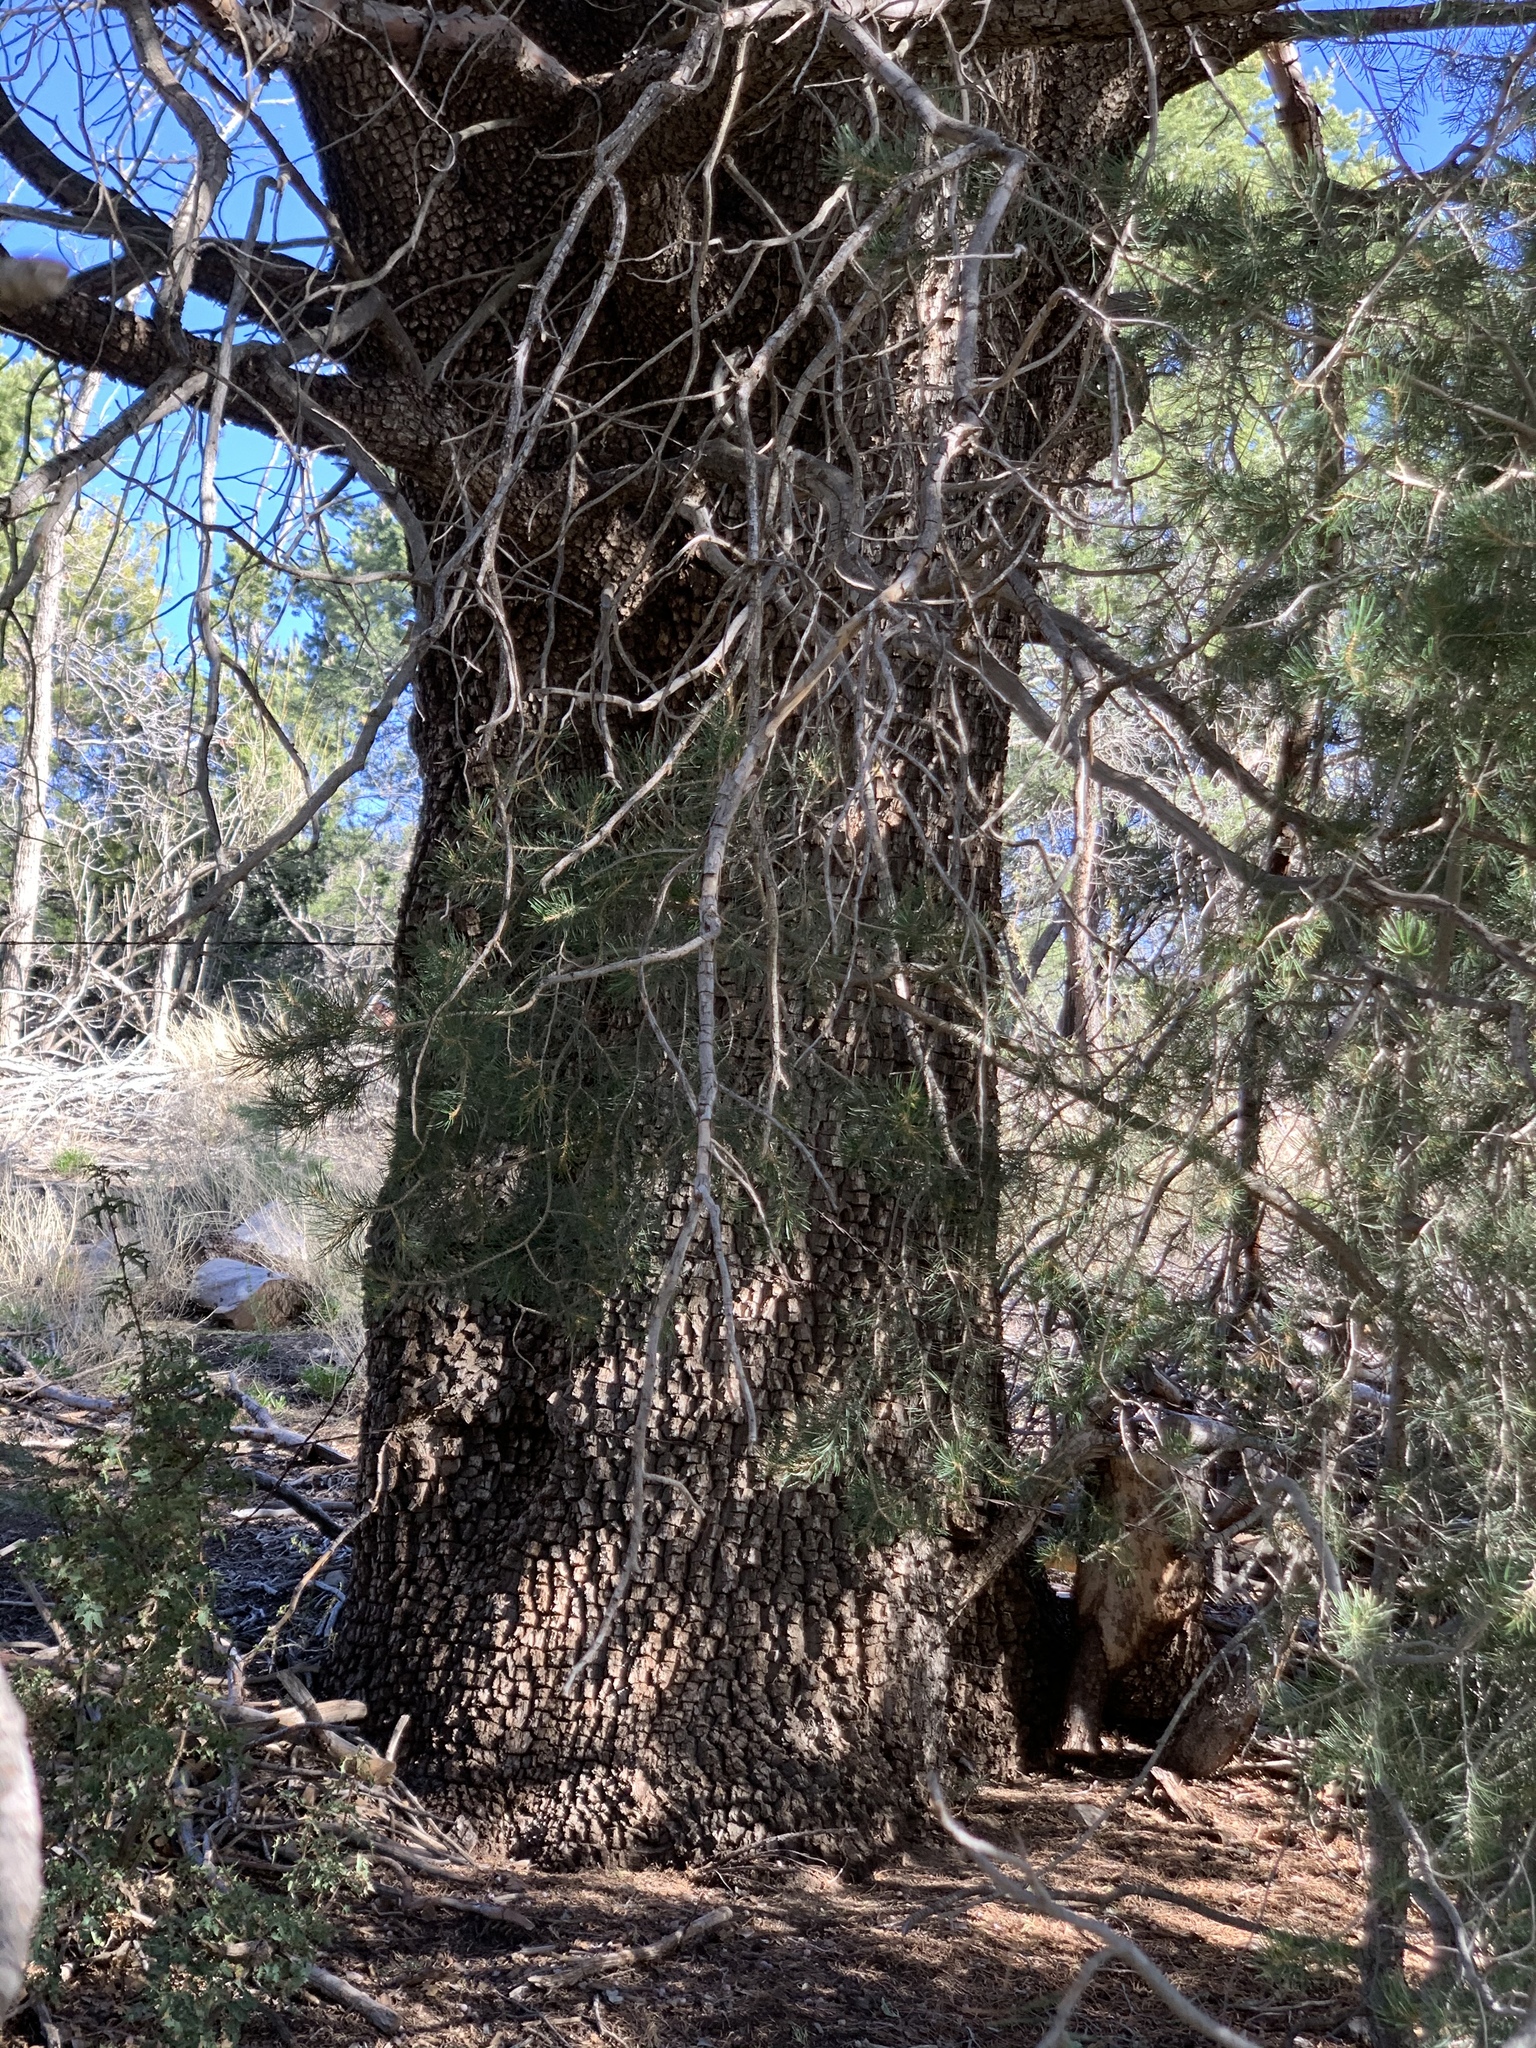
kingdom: Plantae
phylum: Tracheophyta
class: Pinopsida
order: Pinales
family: Cupressaceae
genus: Juniperus
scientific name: Juniperus deppeana
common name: Alligator juniper
